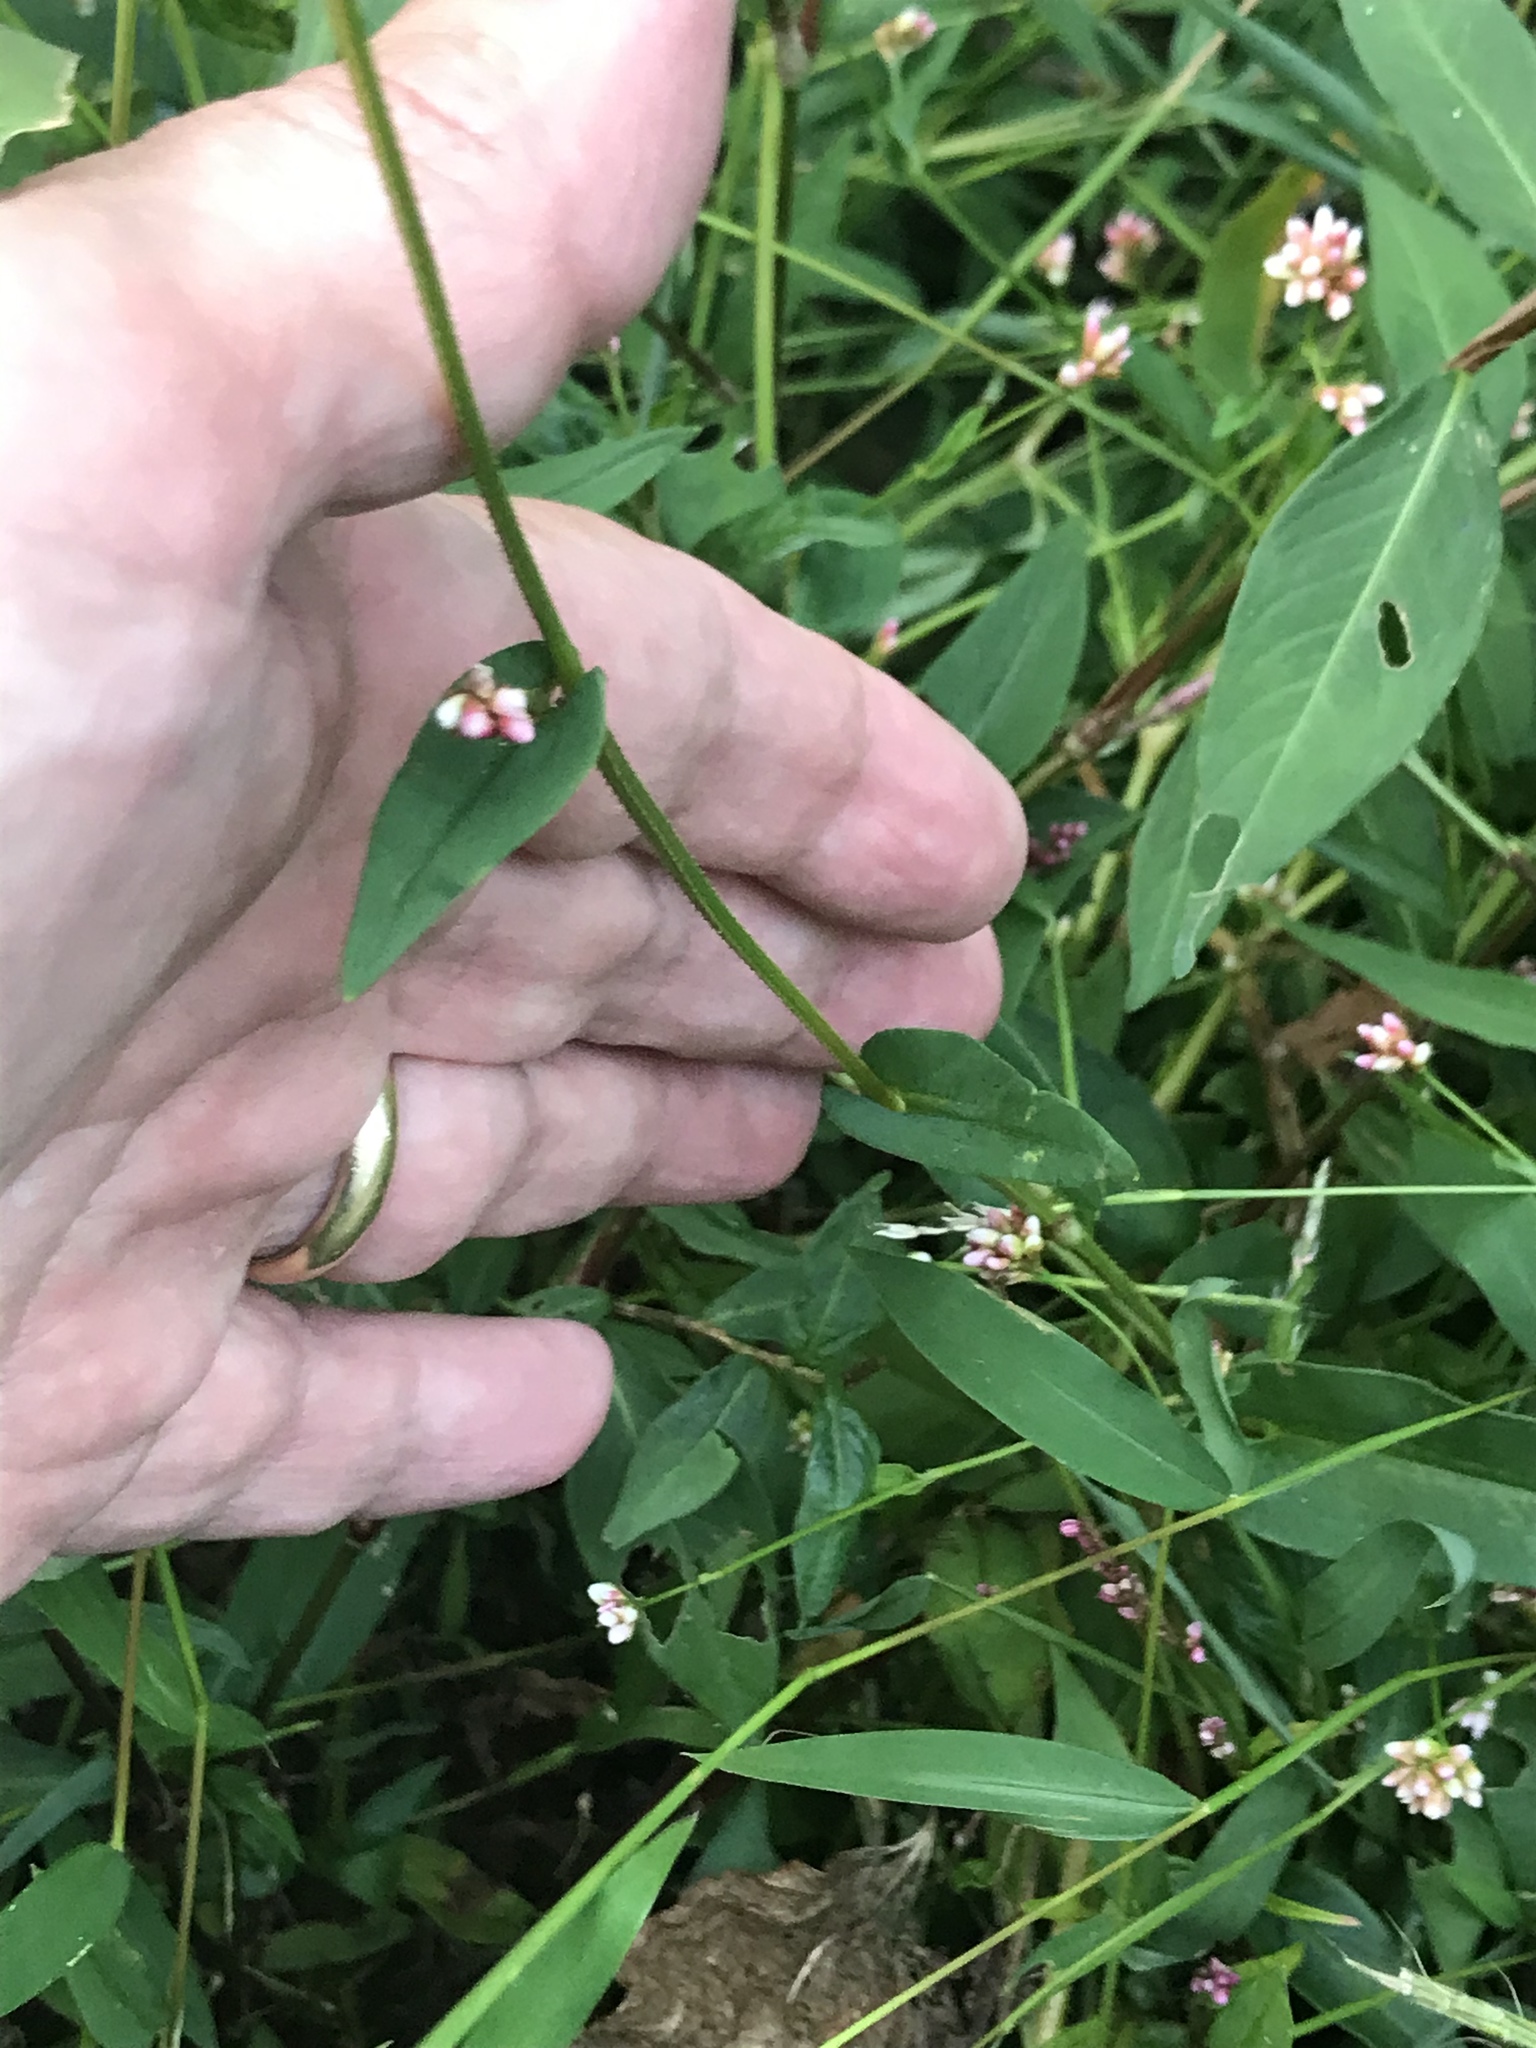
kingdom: Plantae
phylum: Tracheophyta
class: Magnoliopsida
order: Caryophyllales
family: Polygonaceae
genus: Persicaria
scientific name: Persicaria sagittata
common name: American tearthumb
